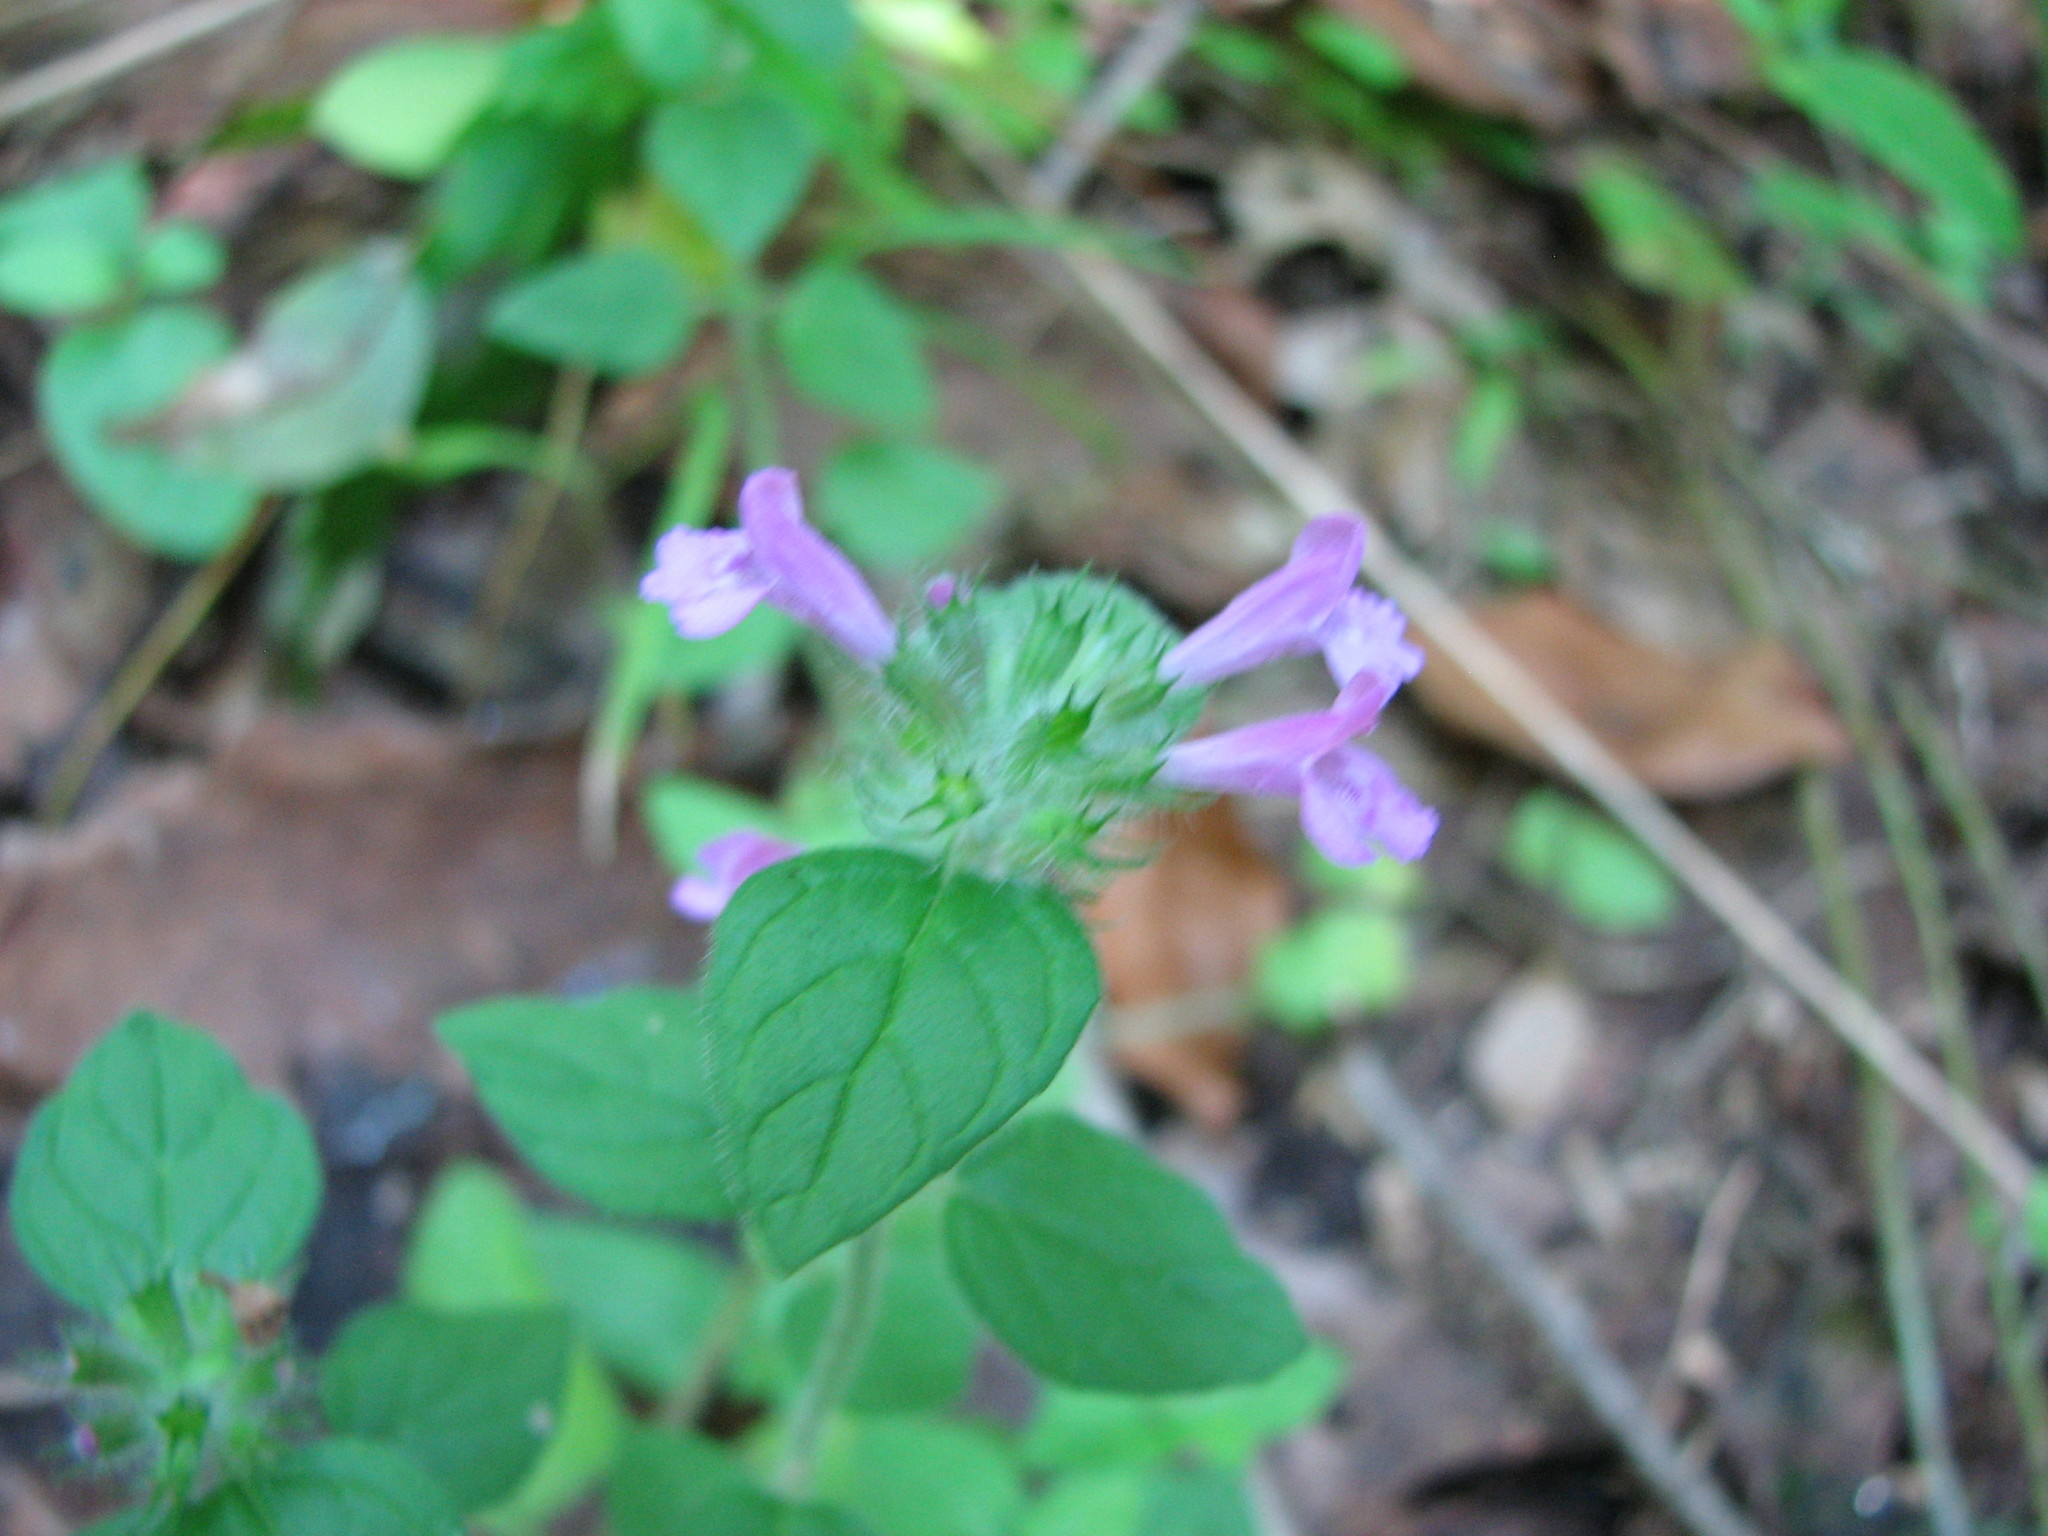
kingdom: Plantae
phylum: Tracheophyta
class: Magnoliopsida
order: Lamiales
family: Lamiaceae
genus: Clinopodium
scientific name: Clinopodium vulgare
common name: Wild basil
